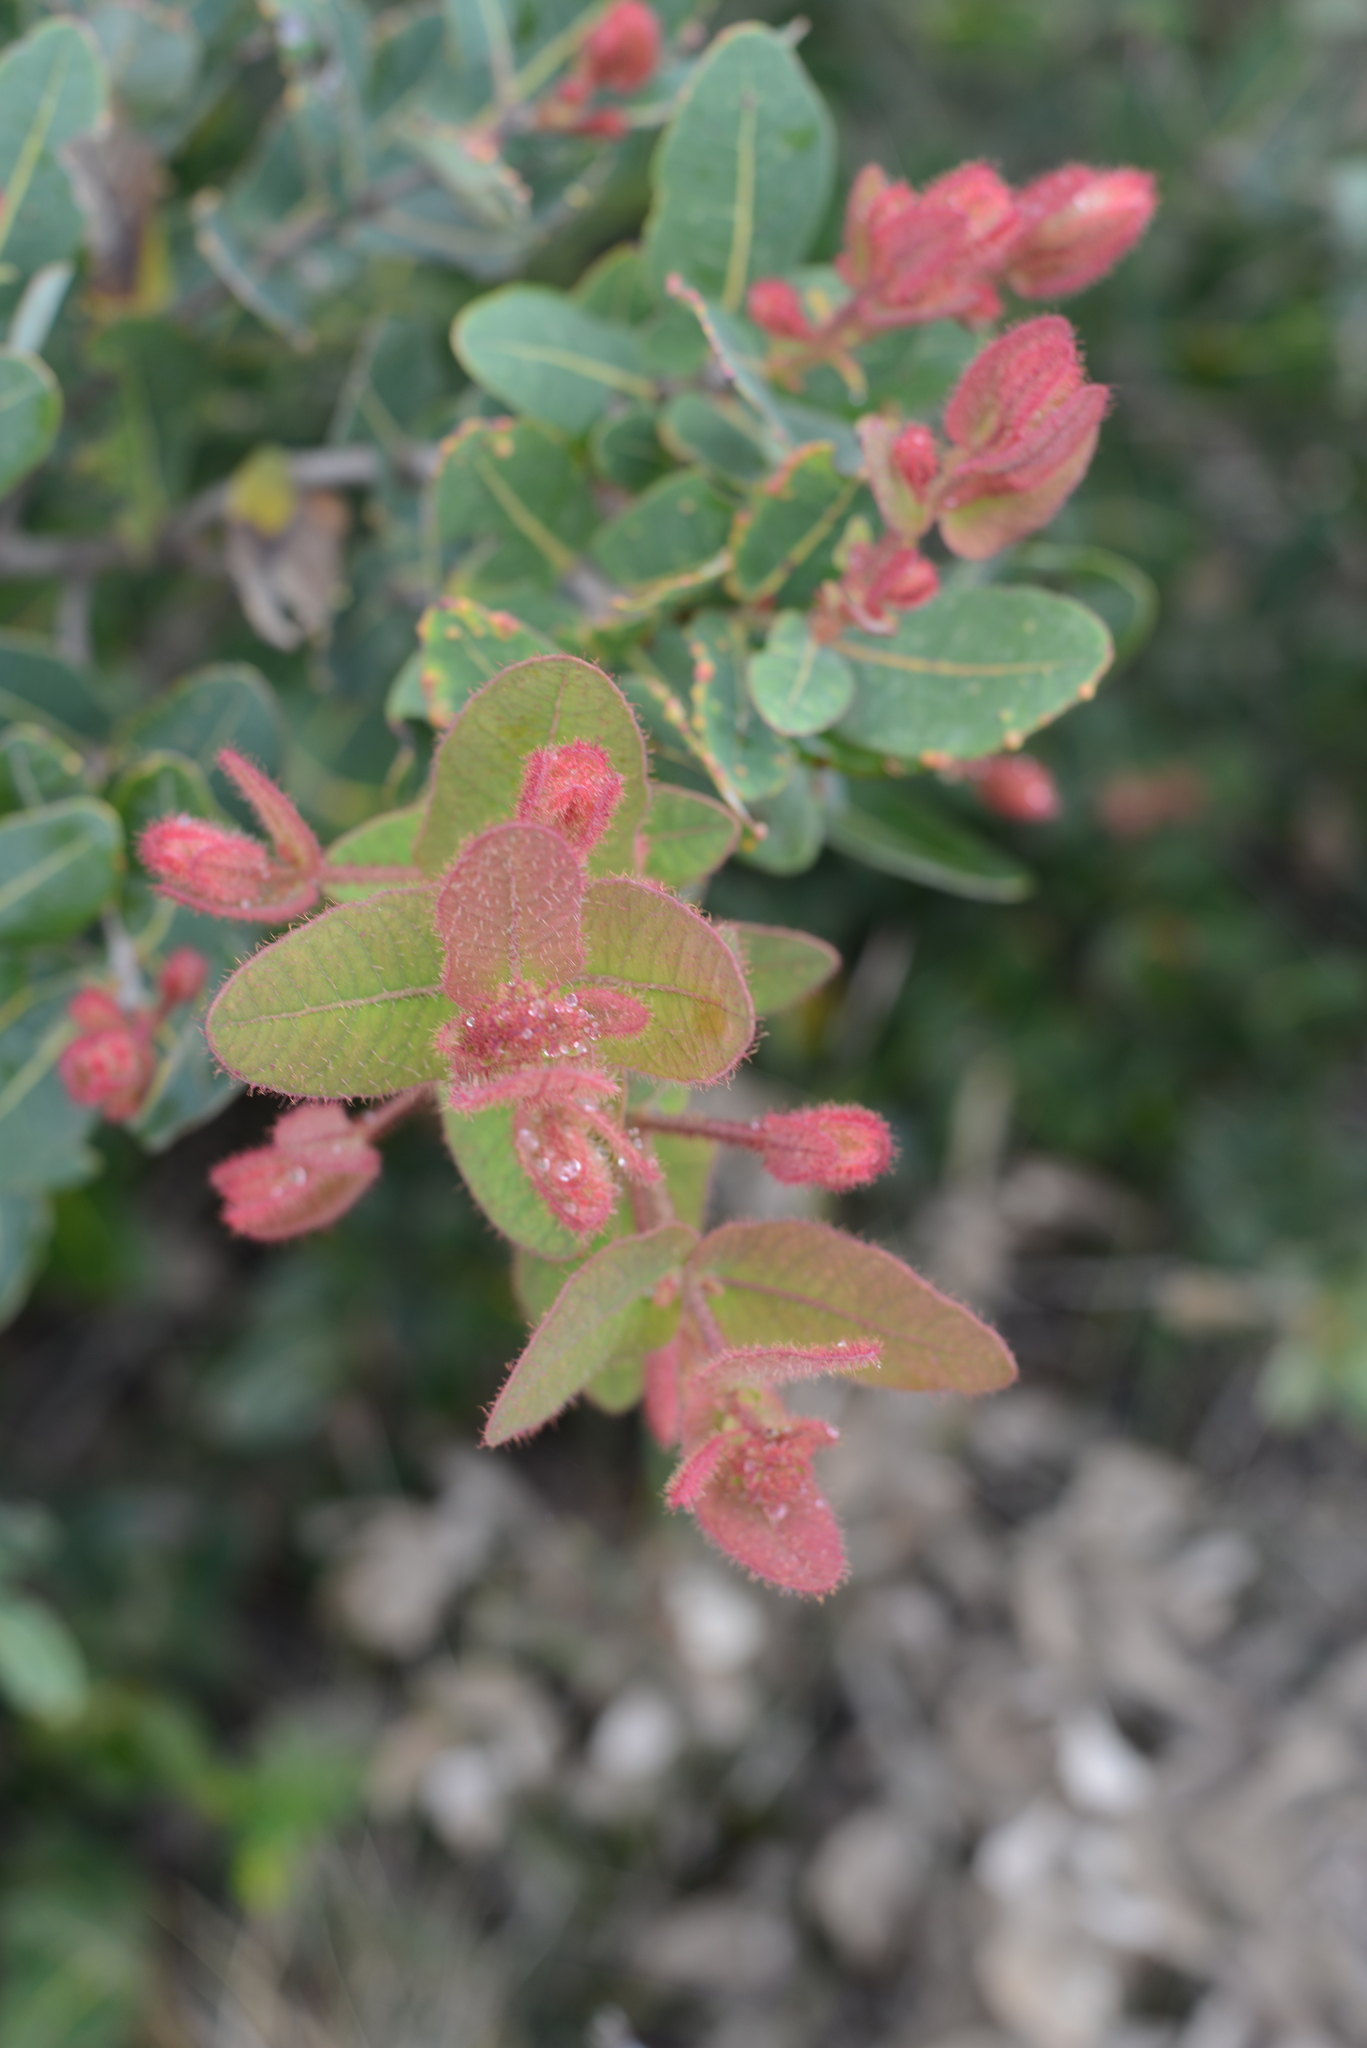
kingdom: Plantae
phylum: Tracheophyta
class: Magnoliopsida
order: Myrtales
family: Myrtaceae
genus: Angophora
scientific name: Angophora hispida
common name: Dwarf-apple
